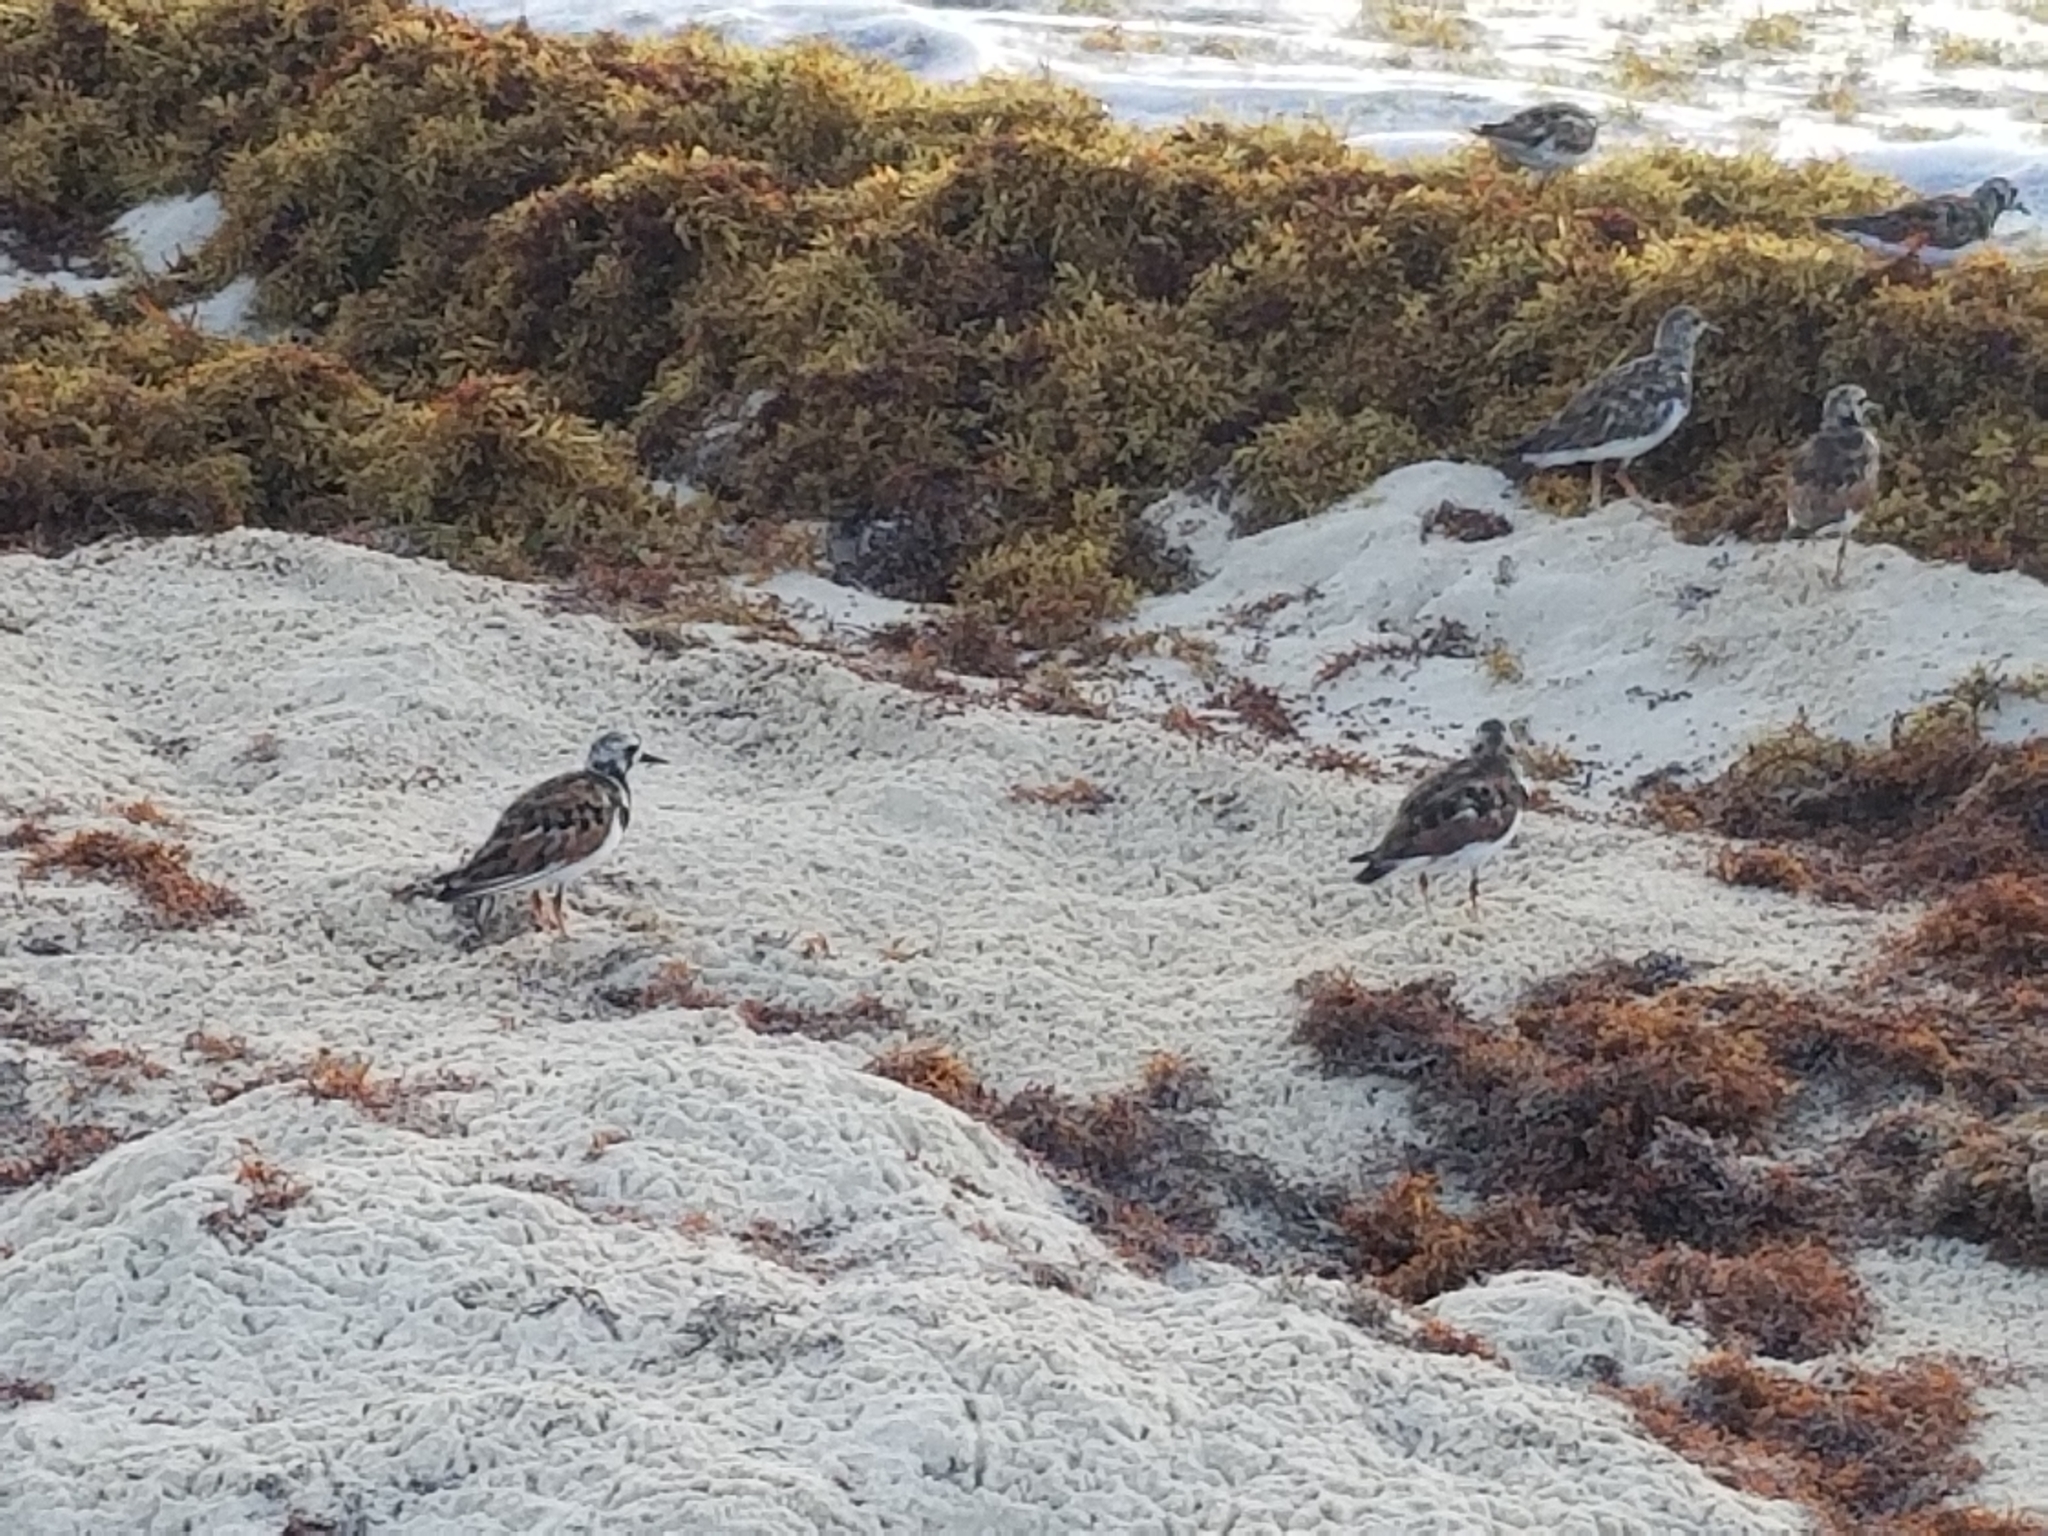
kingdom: Animalia
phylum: Chordata
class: Aves
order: Charadriiformes
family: Scolopacidae
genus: Arenaria
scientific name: Arenaria interpres
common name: Ruddy turnstone
